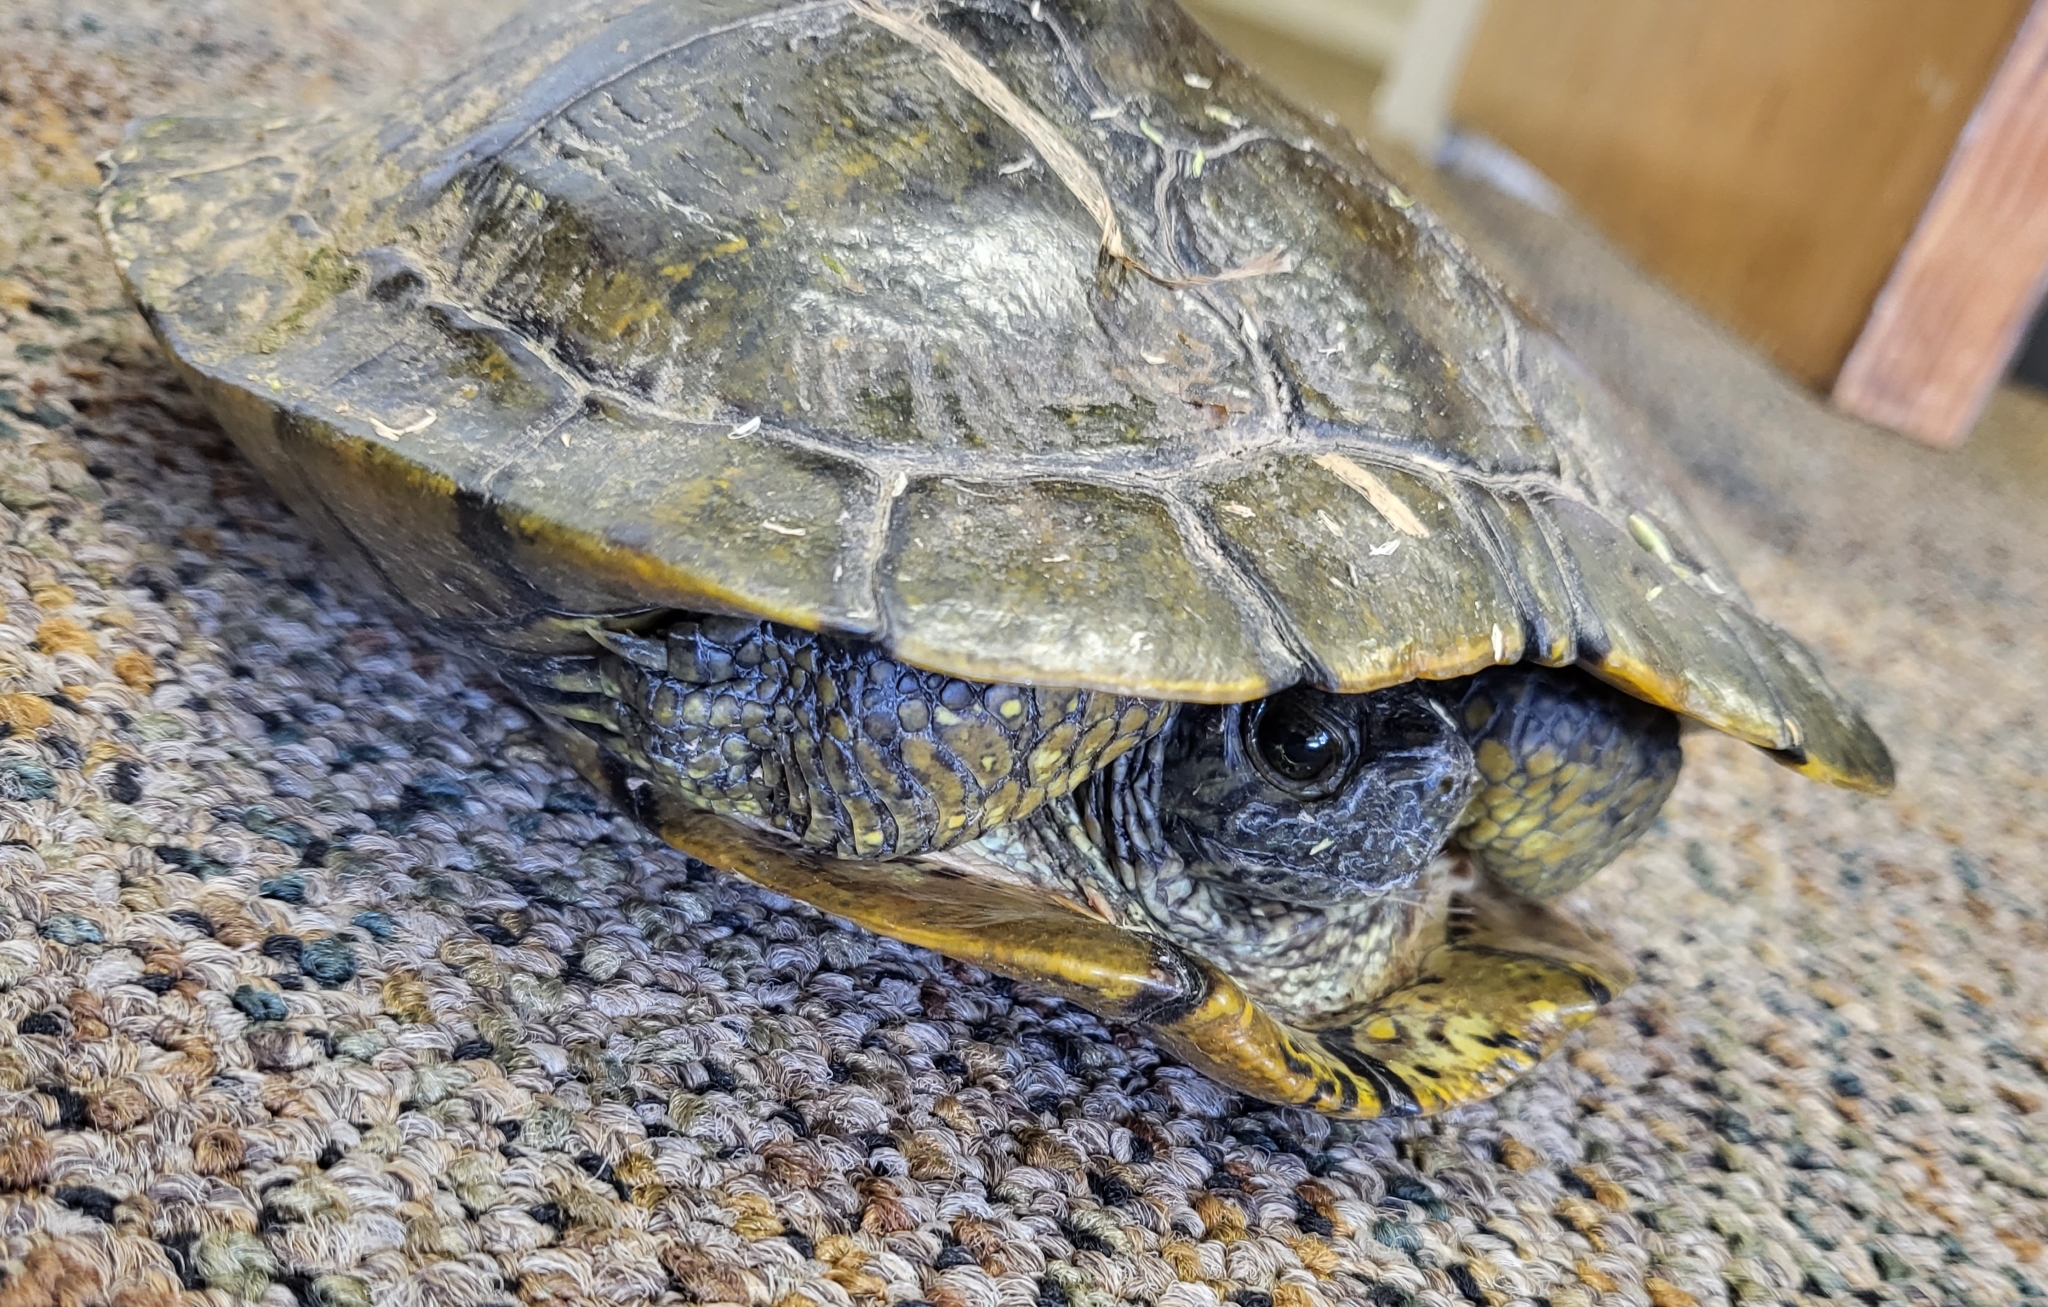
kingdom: Animalia
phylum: Chordata
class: Testudines
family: Emydidae
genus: Trachemys
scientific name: Trachemys scripta
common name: Slider
